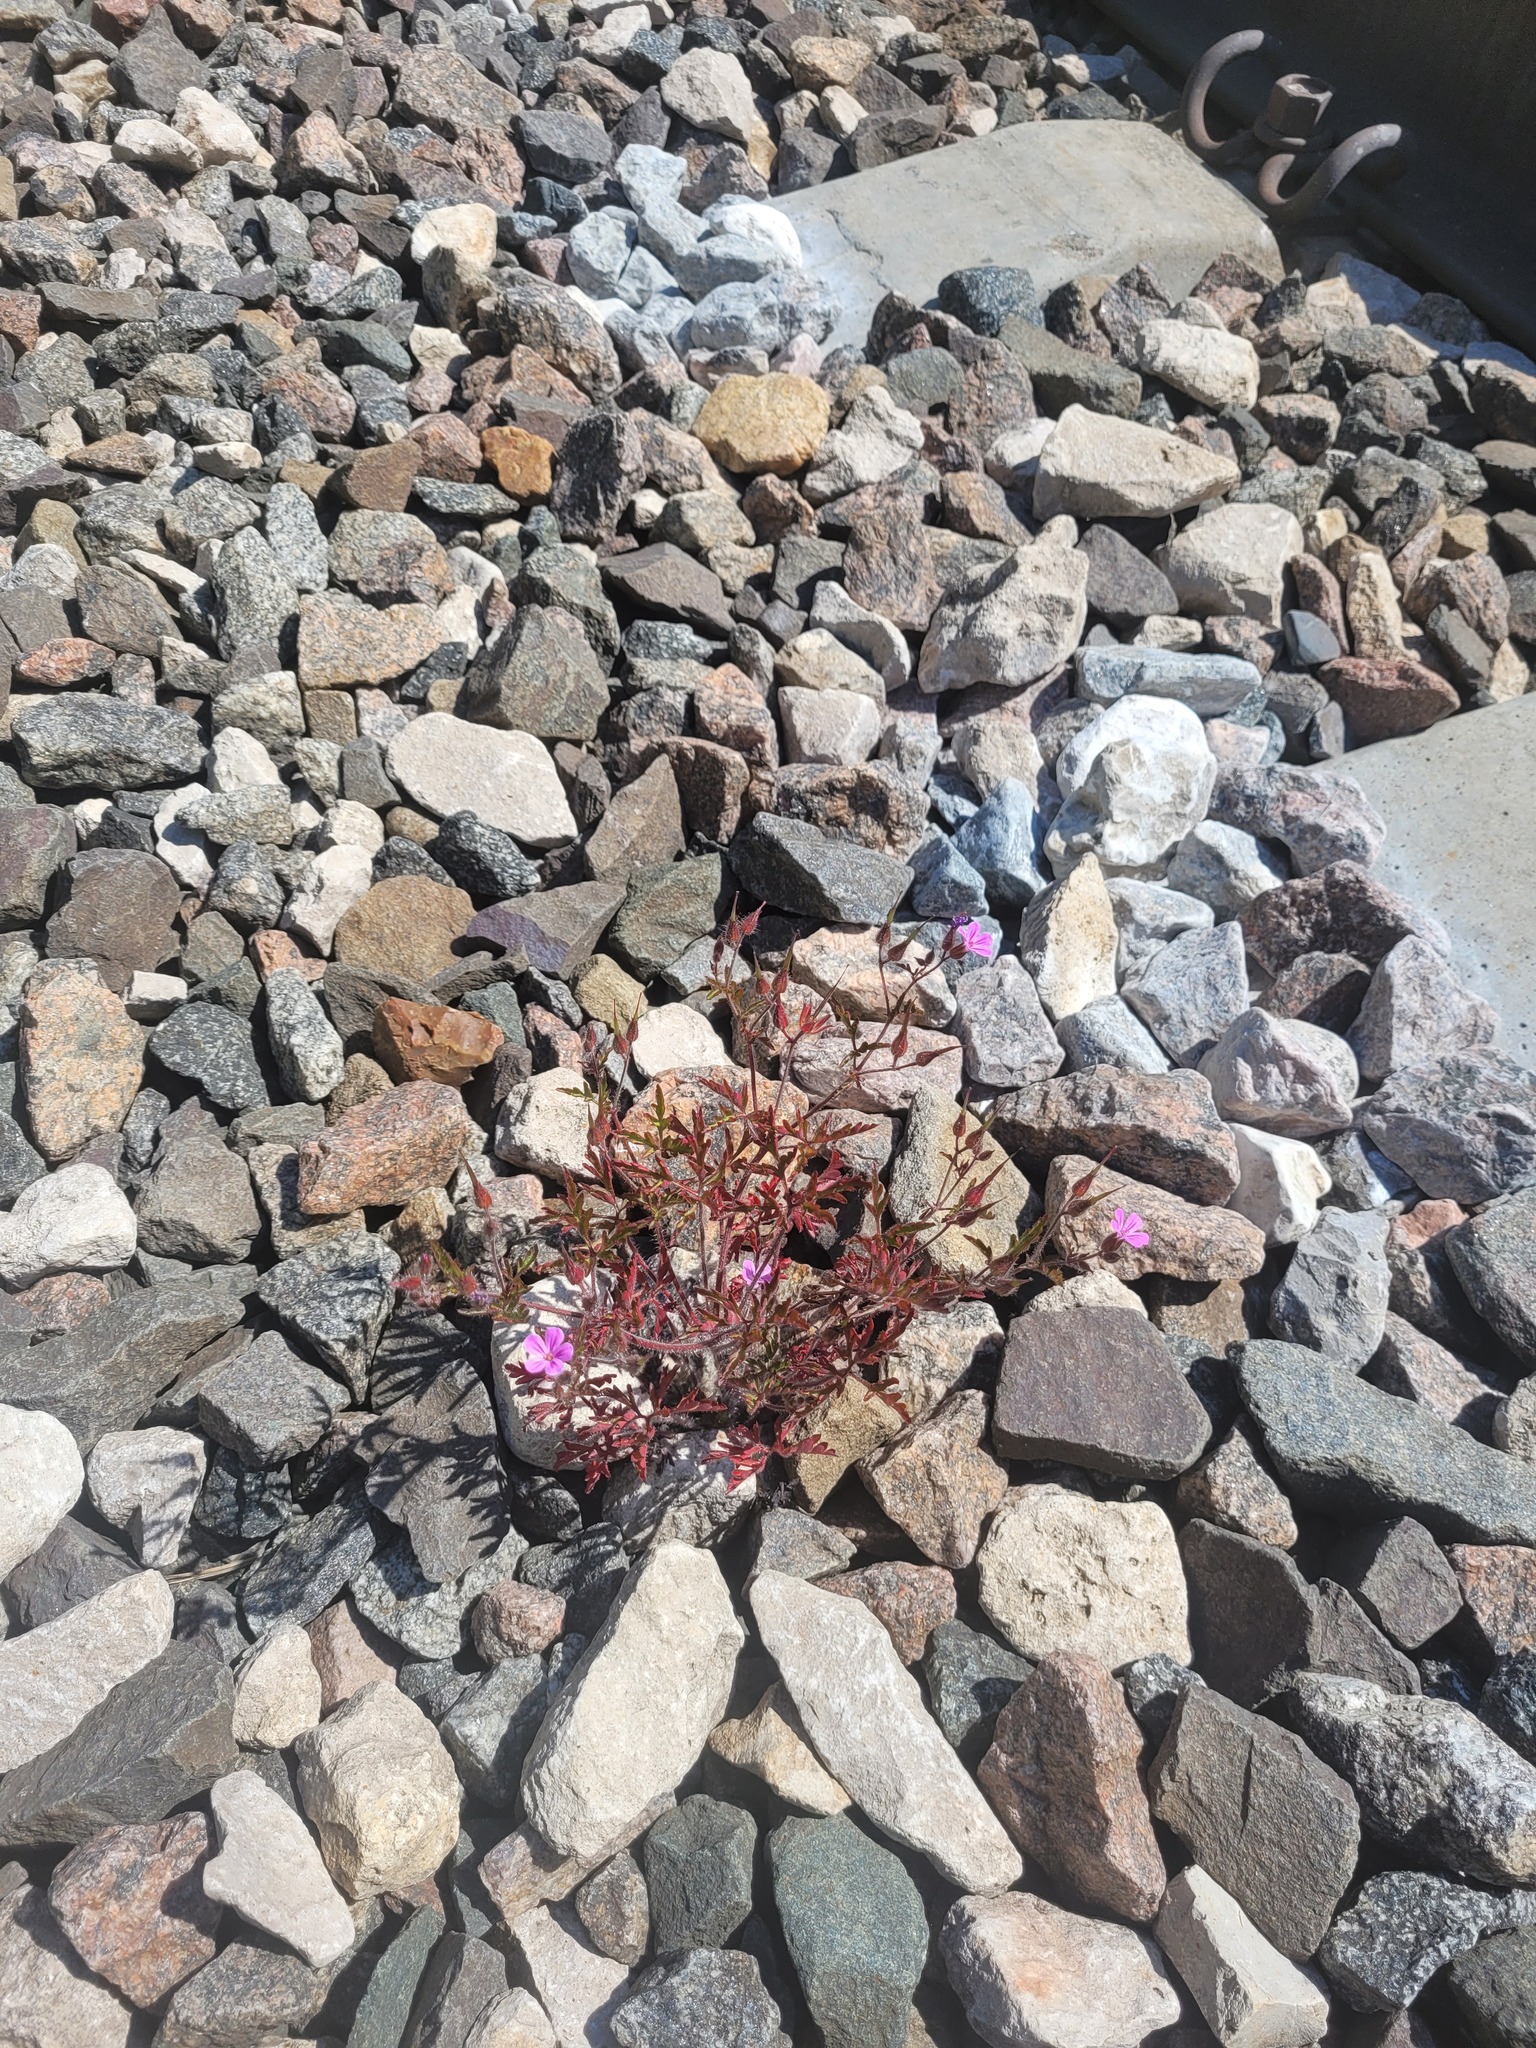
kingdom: Plantae
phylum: Tracheophyta
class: Magnoliopsida
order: Geraniales
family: Geraniaceae
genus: Geranium
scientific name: Geranium robertianum
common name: Herb-robert
